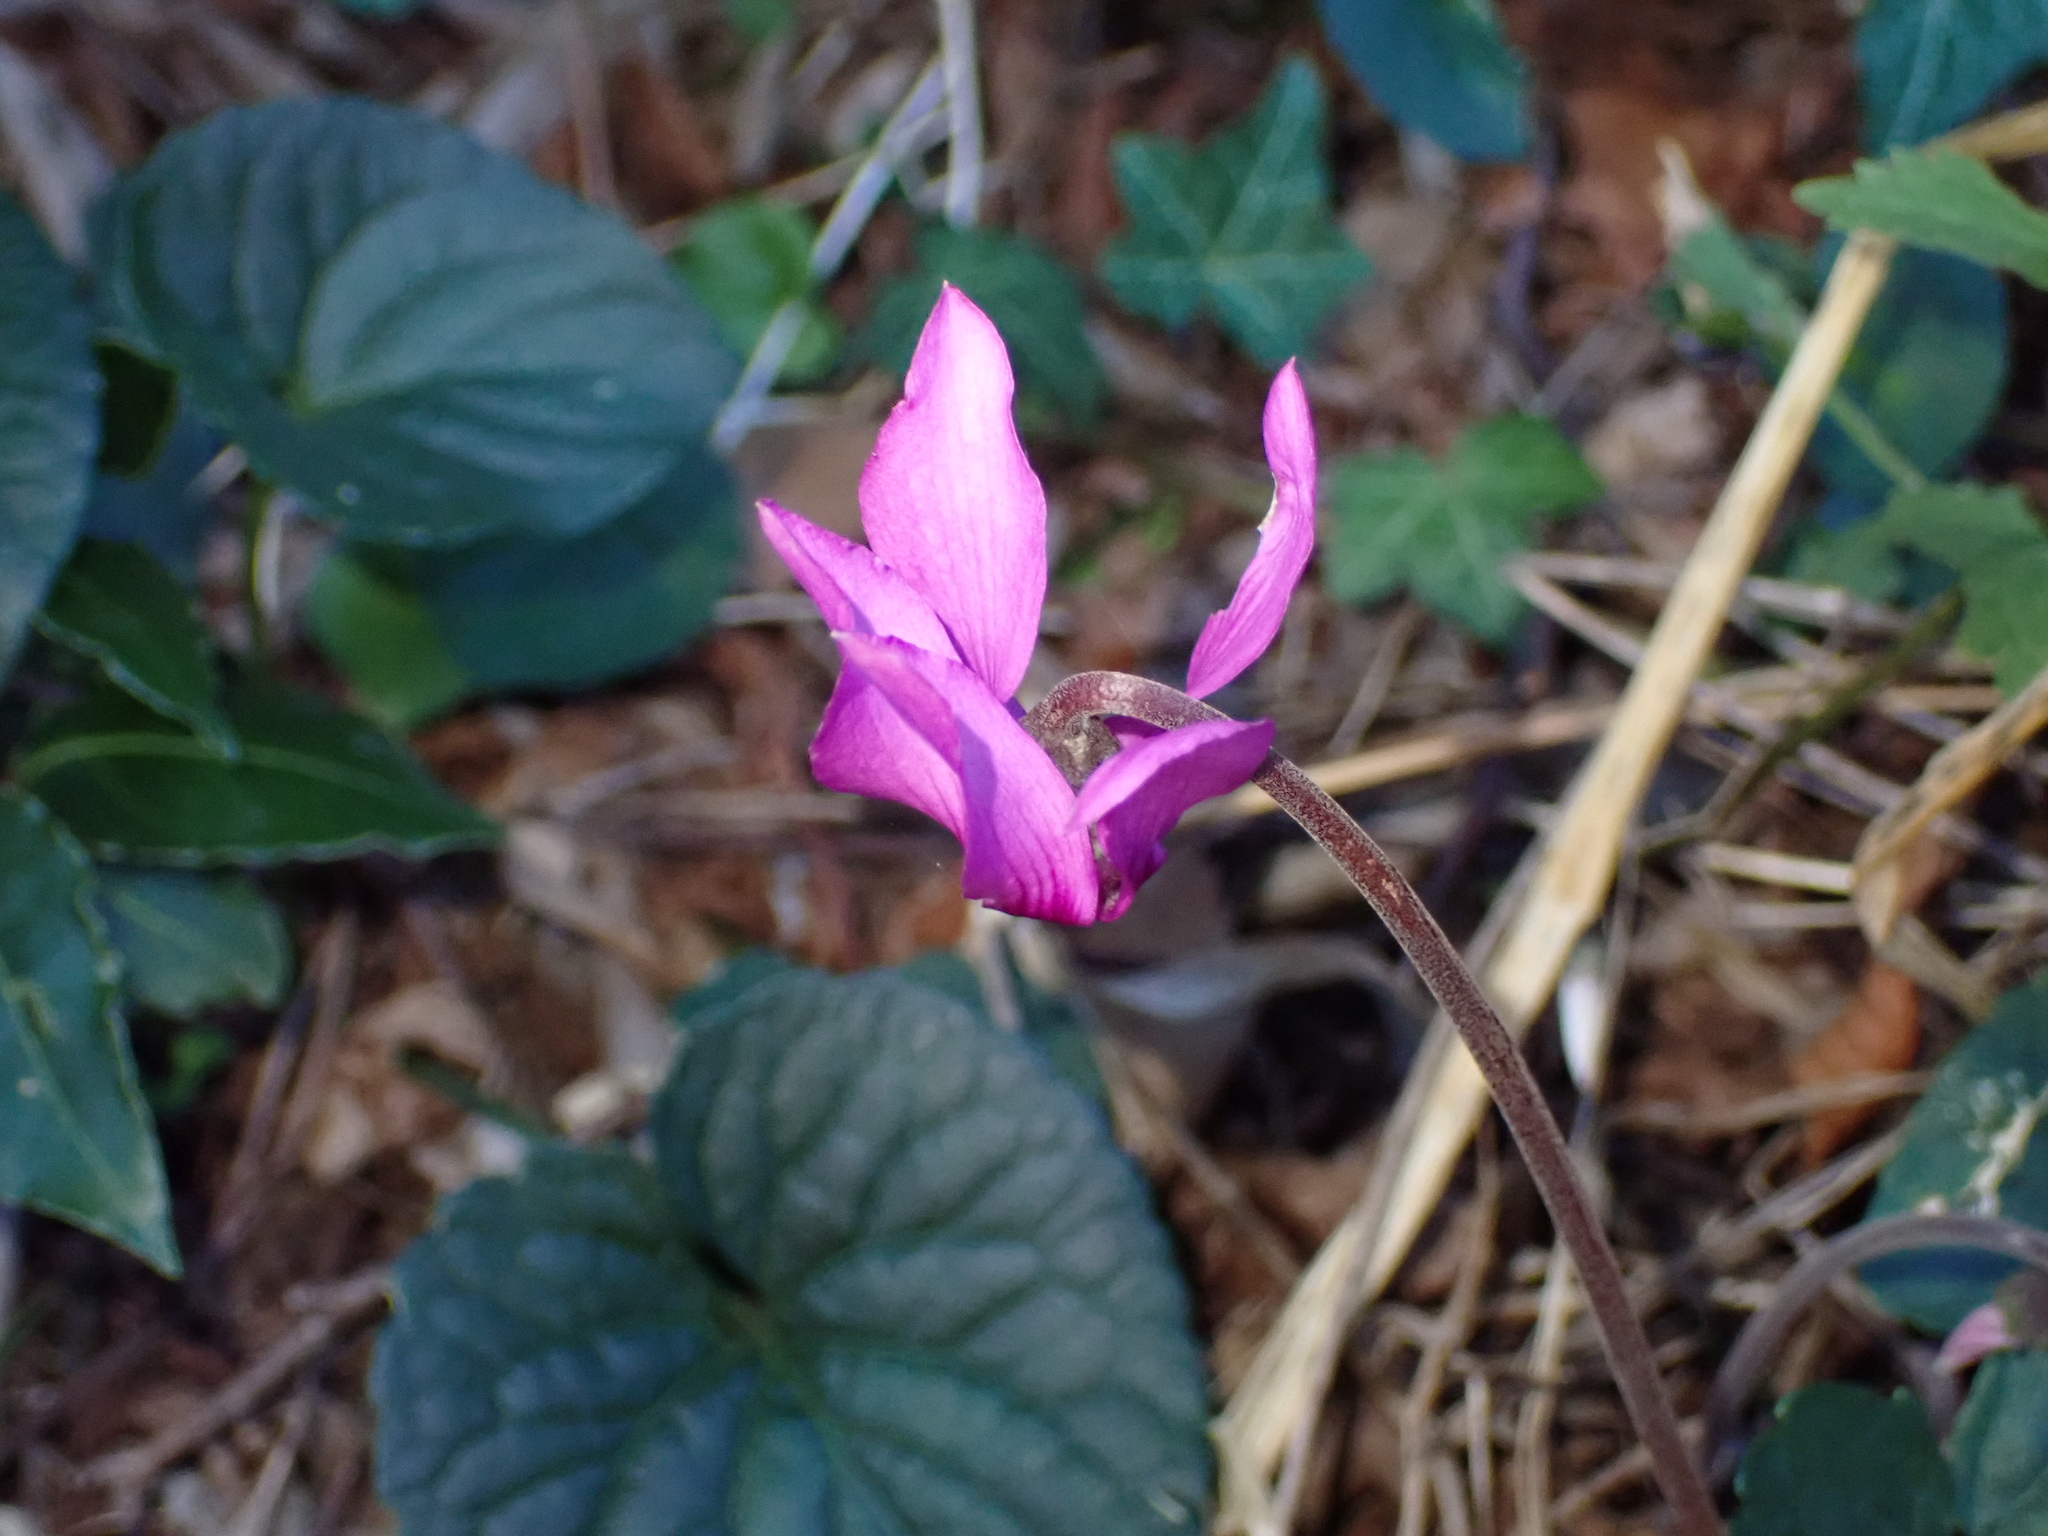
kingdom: Plantae
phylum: Tracheophyta
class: Magnoliopsida
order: Ericales
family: Primulaceae
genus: Cyclamen
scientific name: Cyclamen purpurascens
